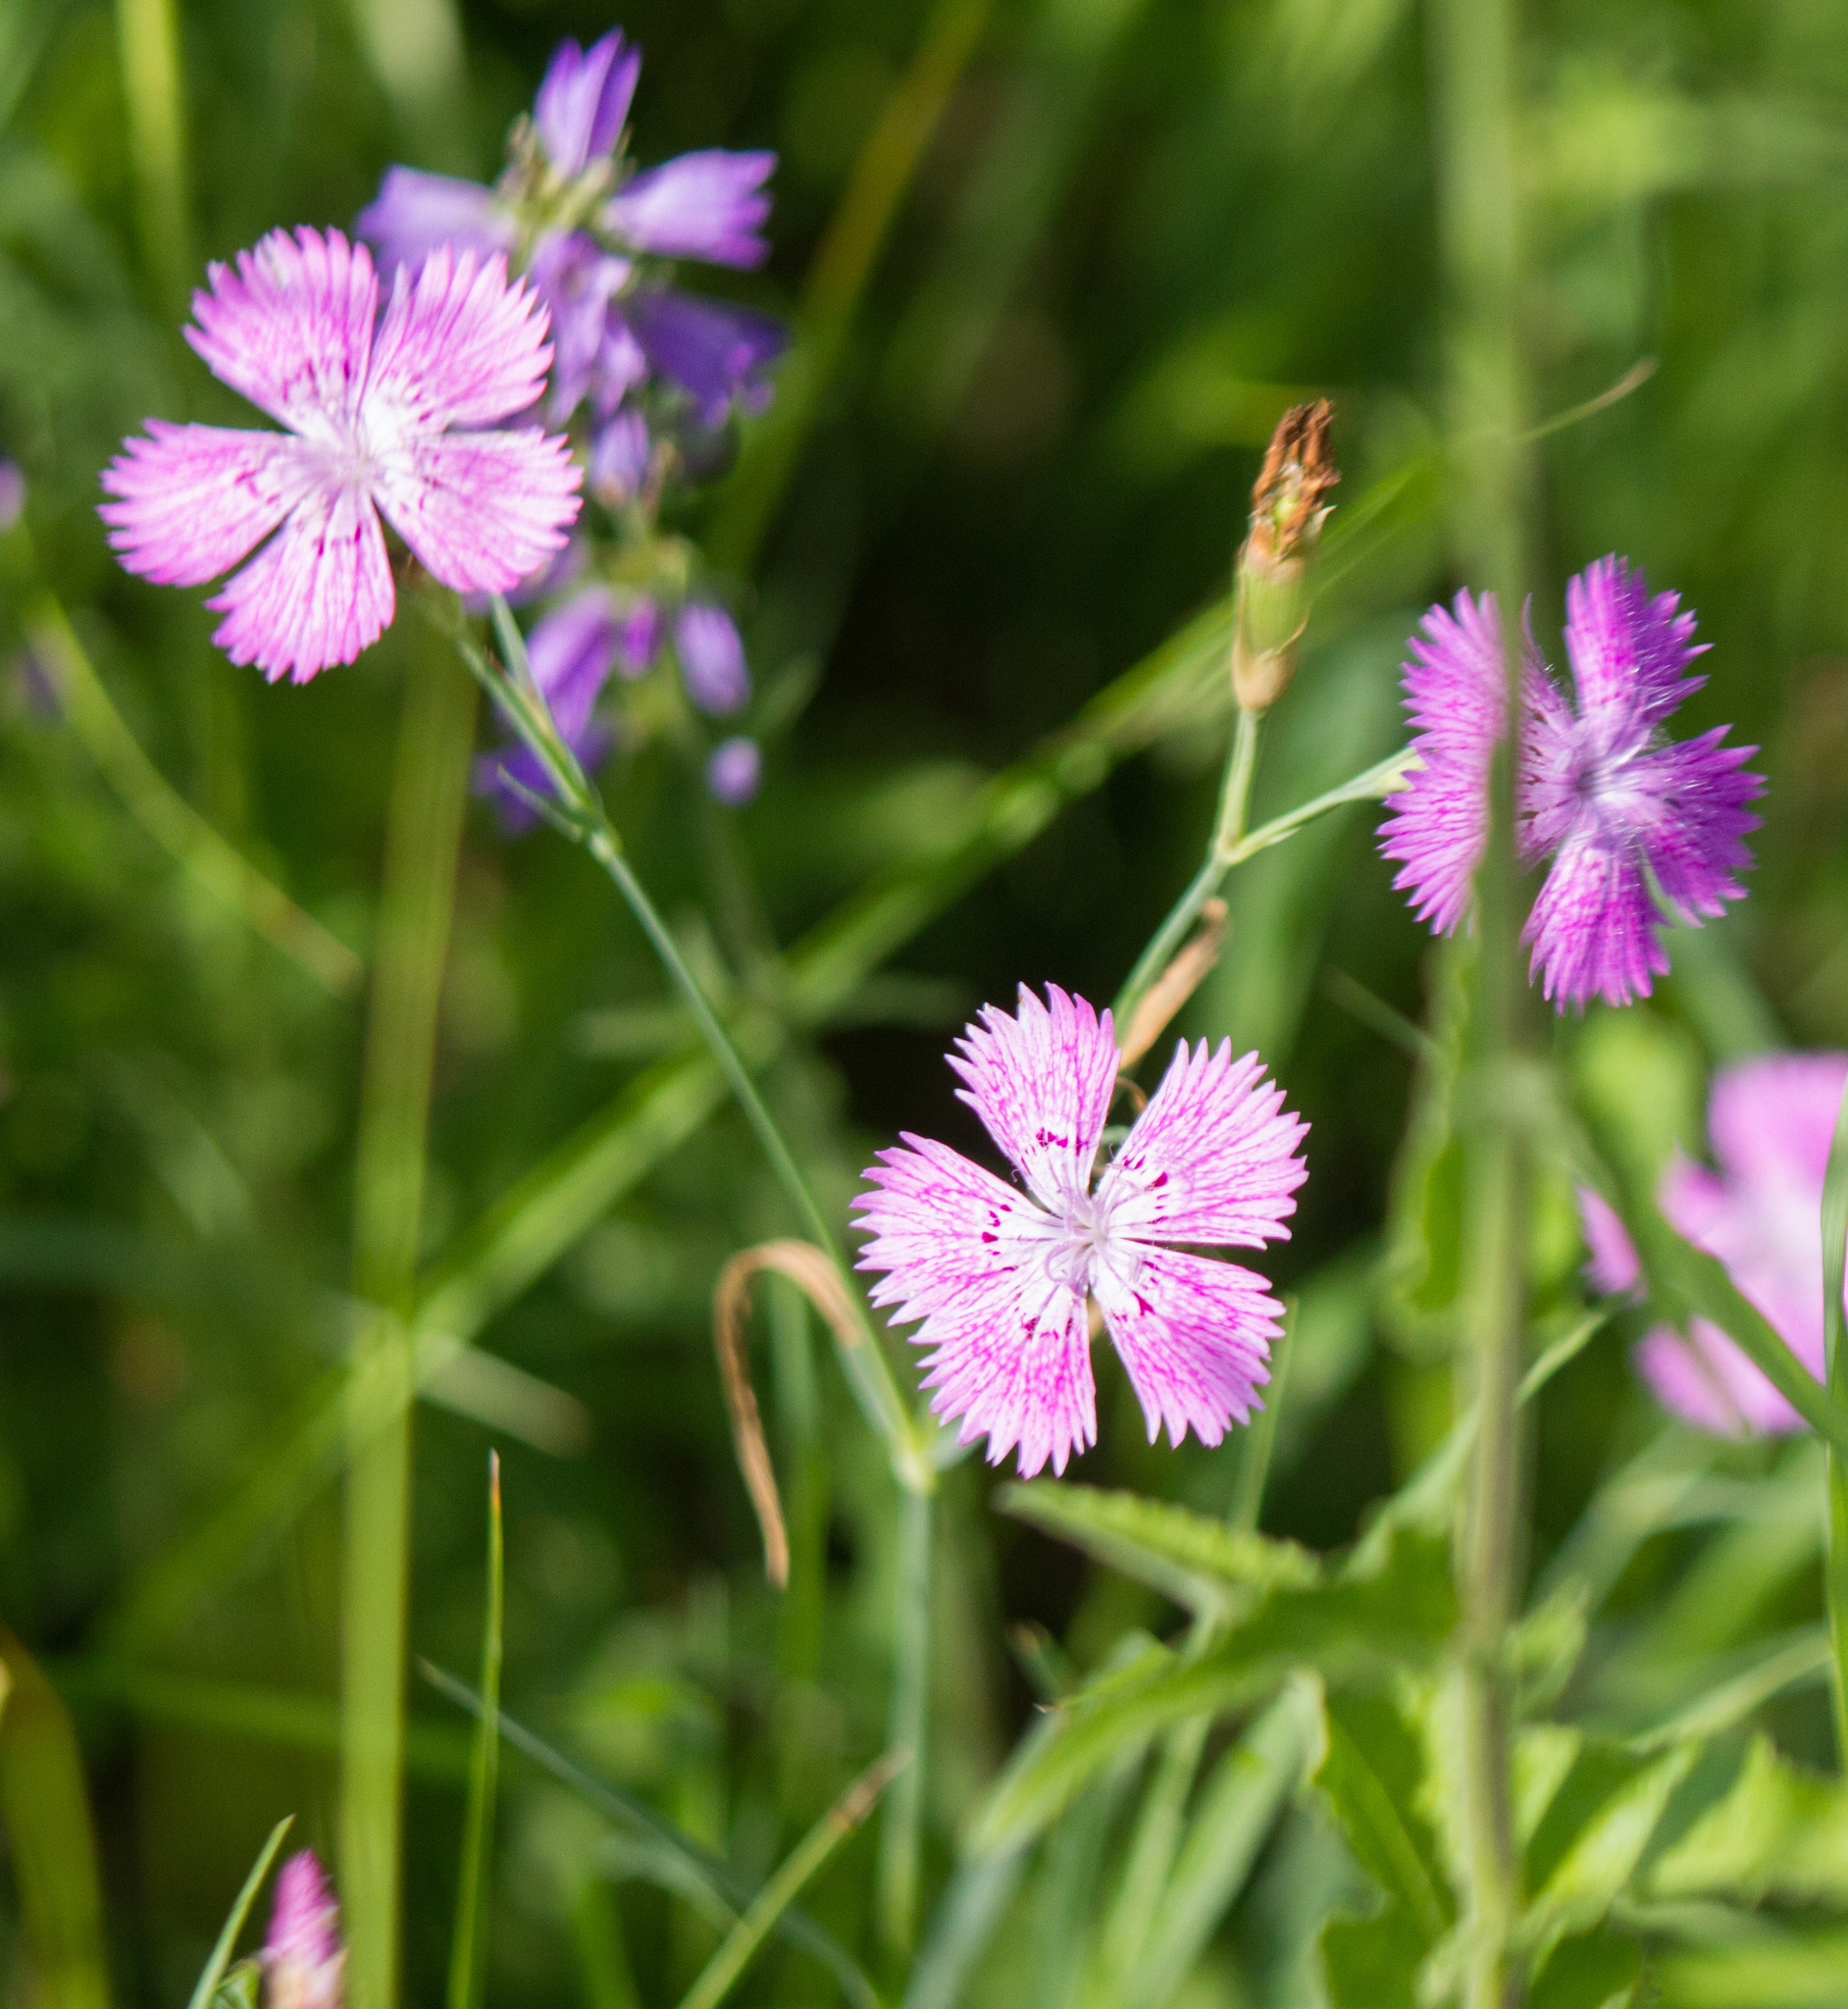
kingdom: Plantae
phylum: Tracheophyta
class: Magnoliopsida
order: Caryophyllales
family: Caryophyllaceae
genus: Dianthus
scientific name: Dianthus chinensis
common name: Rainbow pink
